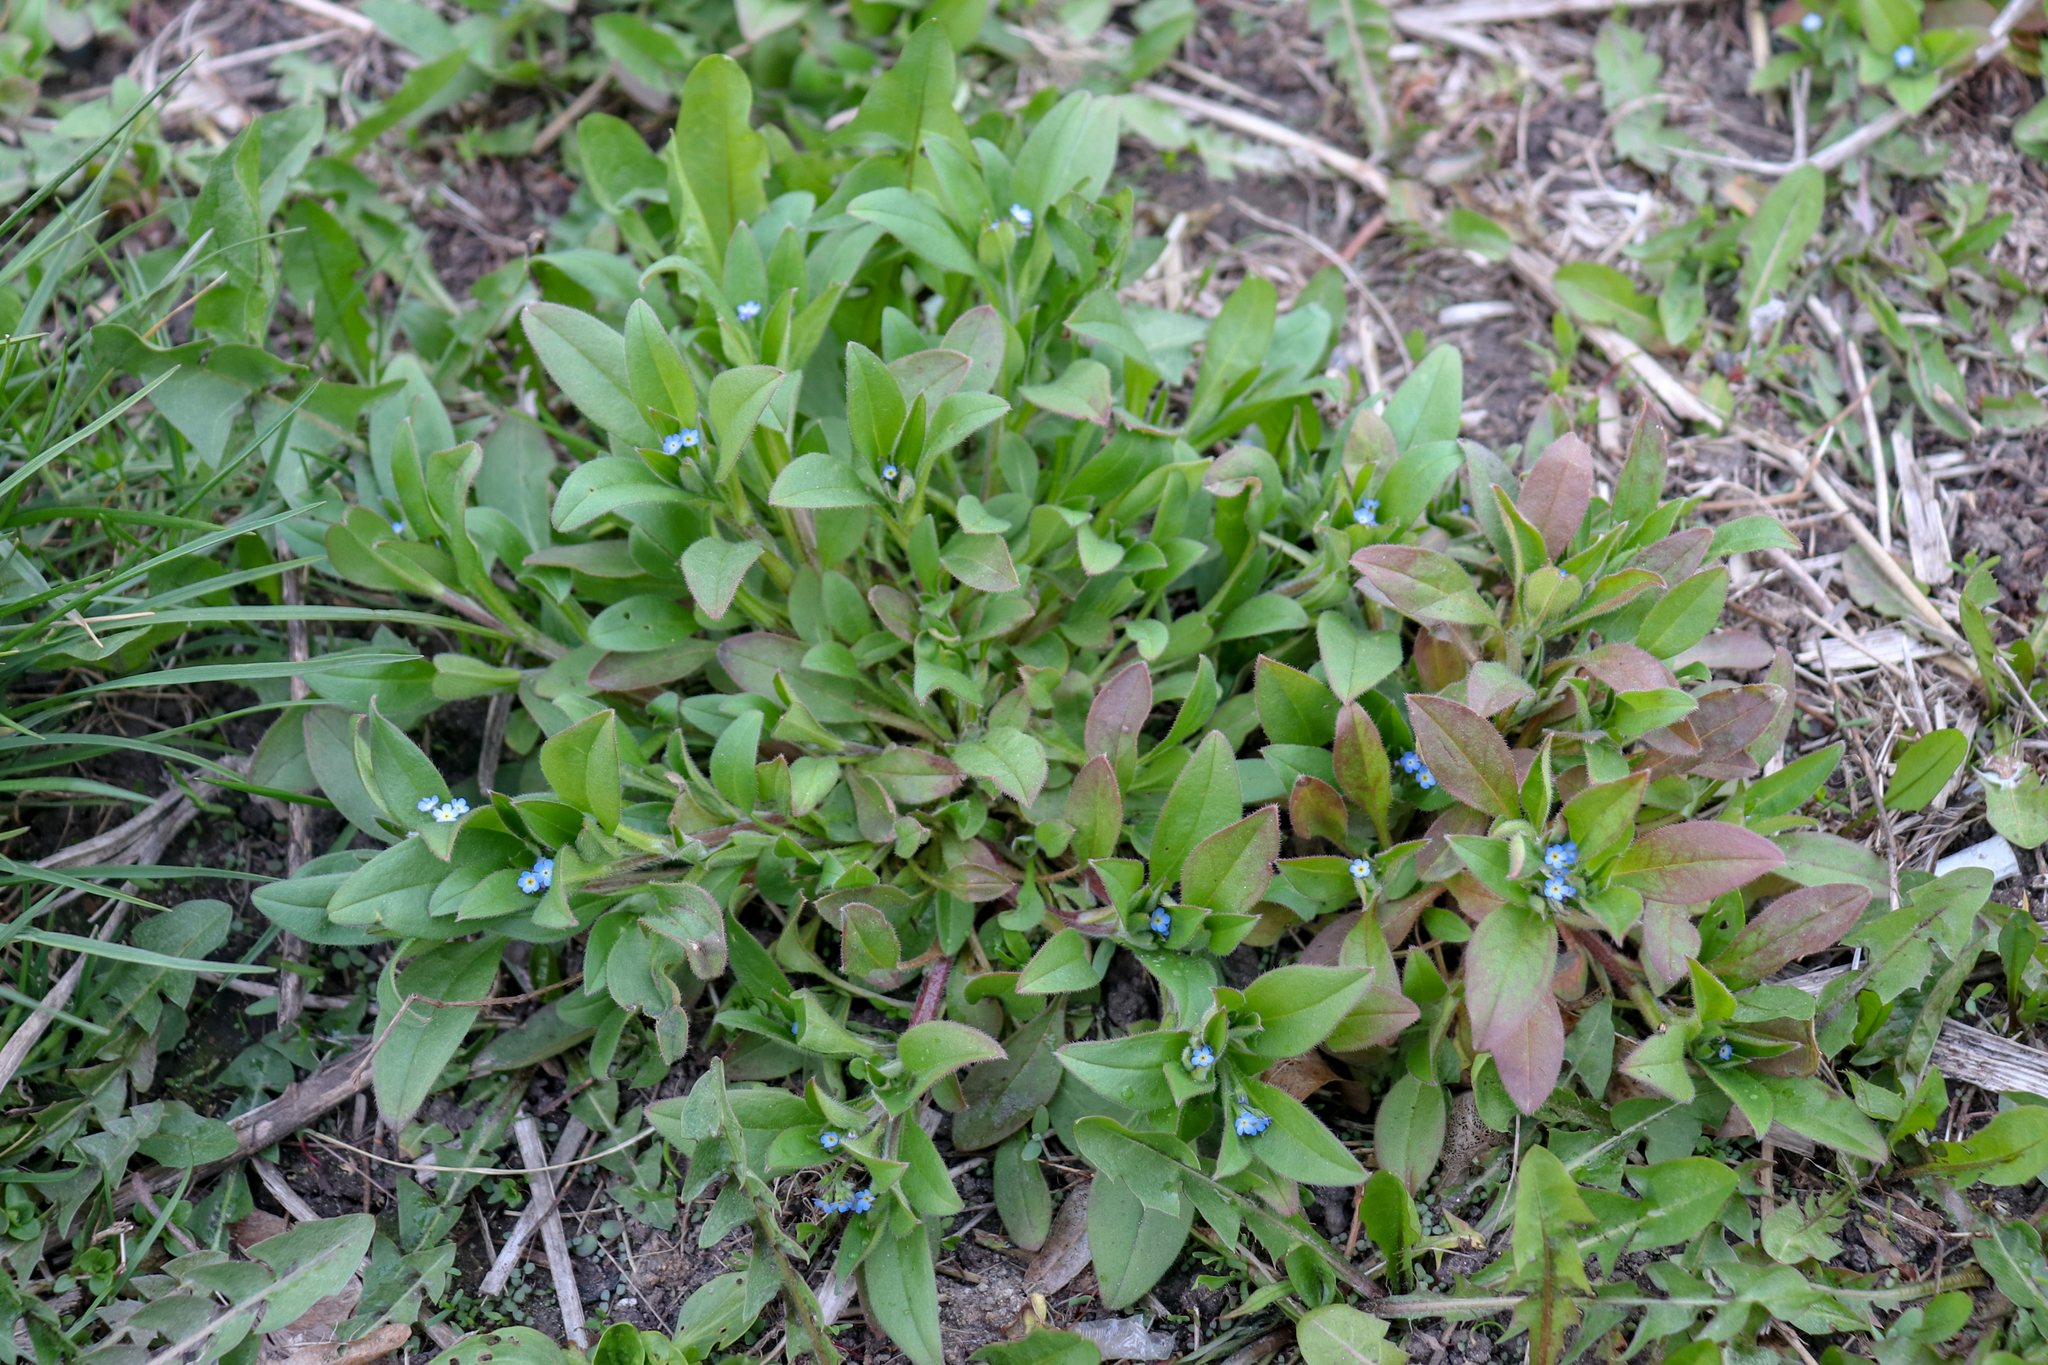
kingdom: Plantae
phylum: Tracheophyta
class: Magnoliopsida
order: Boraginales
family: Boraginaceae
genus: Myosotis
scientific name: Myosotis sparsiflora
